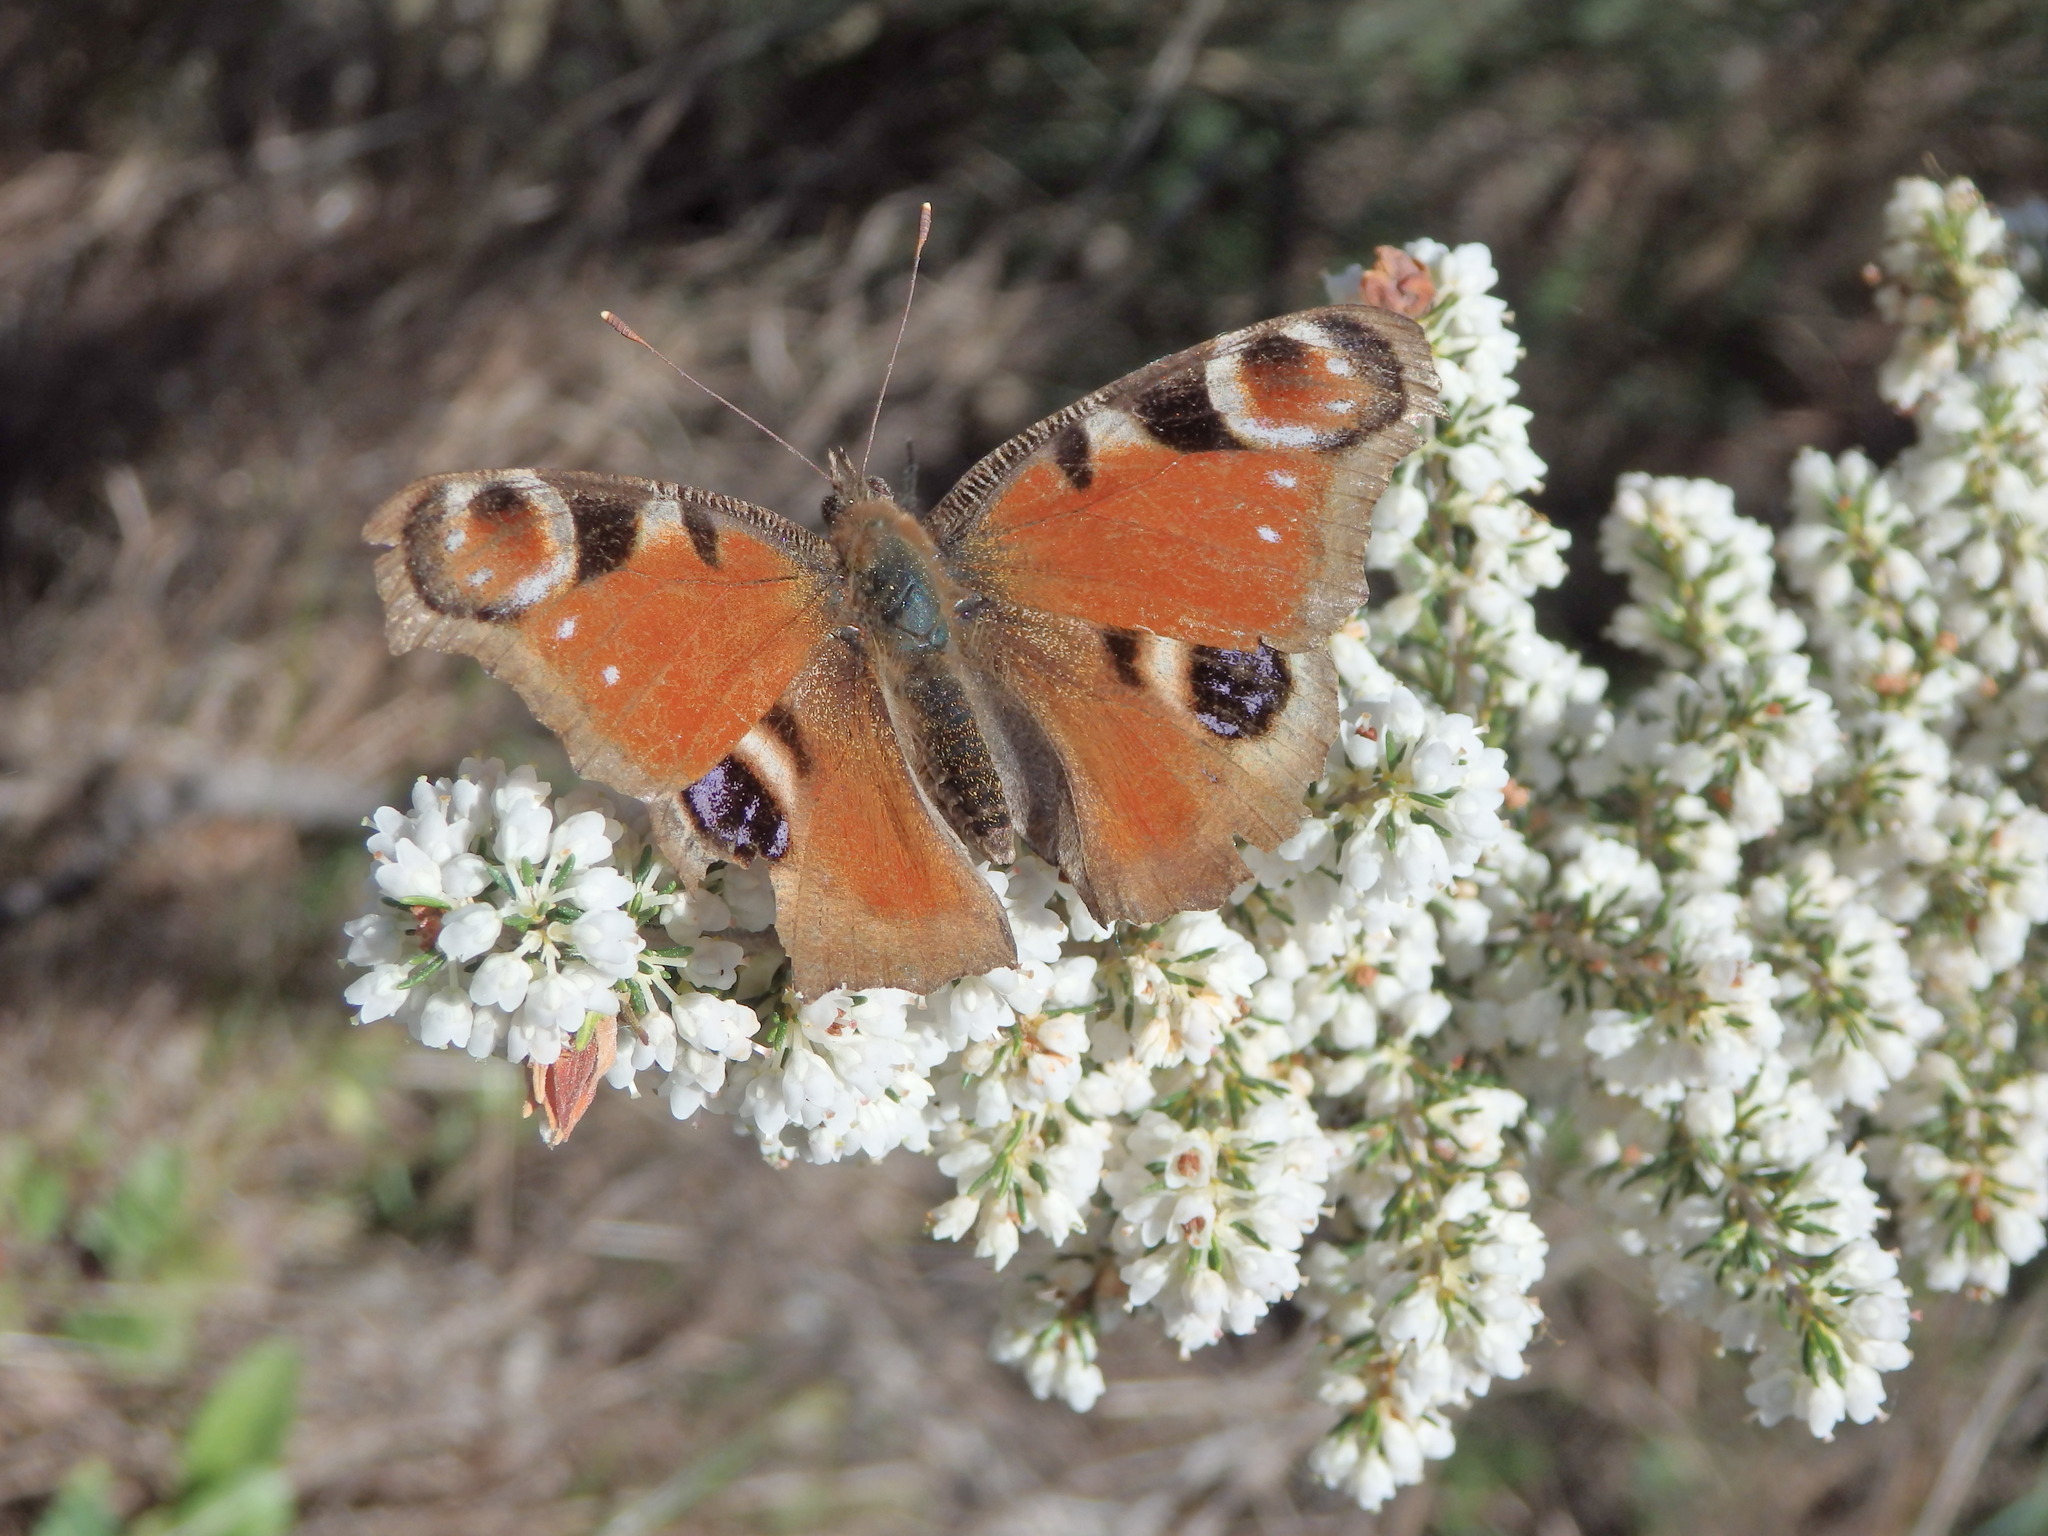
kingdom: Animalia
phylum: Arthropoda
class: Insecta
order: Lepidoptera
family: Nymphalidae
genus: Aglais
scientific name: Aglais io
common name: Peacock
